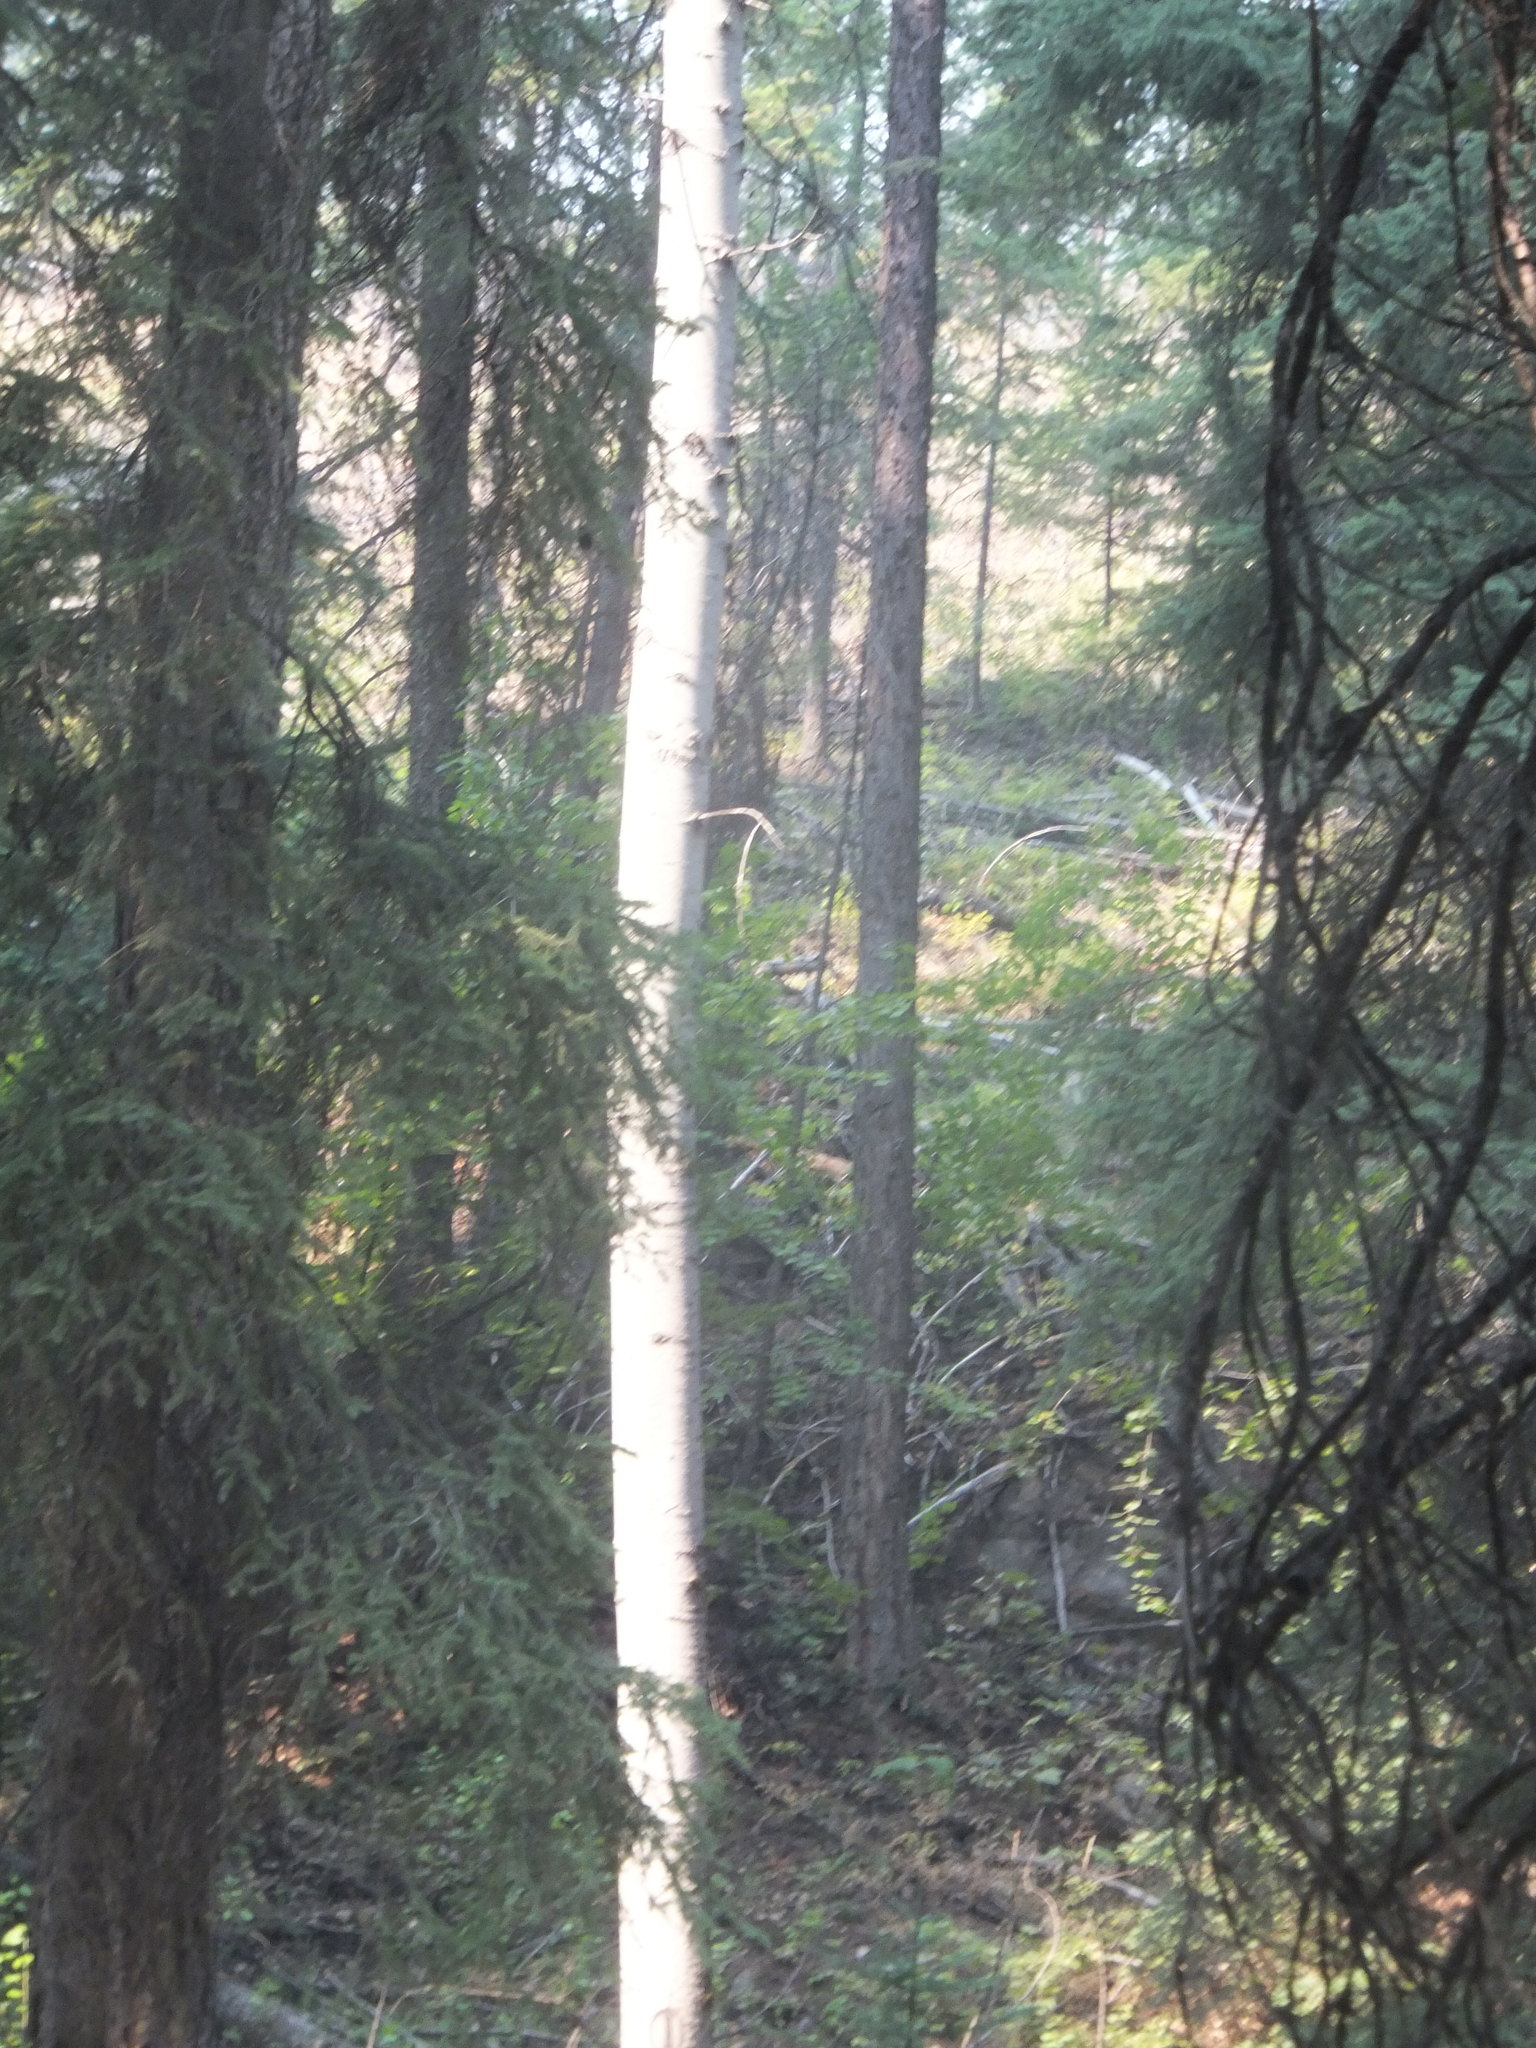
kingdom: Plantae
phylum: Tracheophyta
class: Magnoliopsida
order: Malpighiales
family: Salicaceae
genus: Populus
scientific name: Populus tremuloides
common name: Quaking aspen
